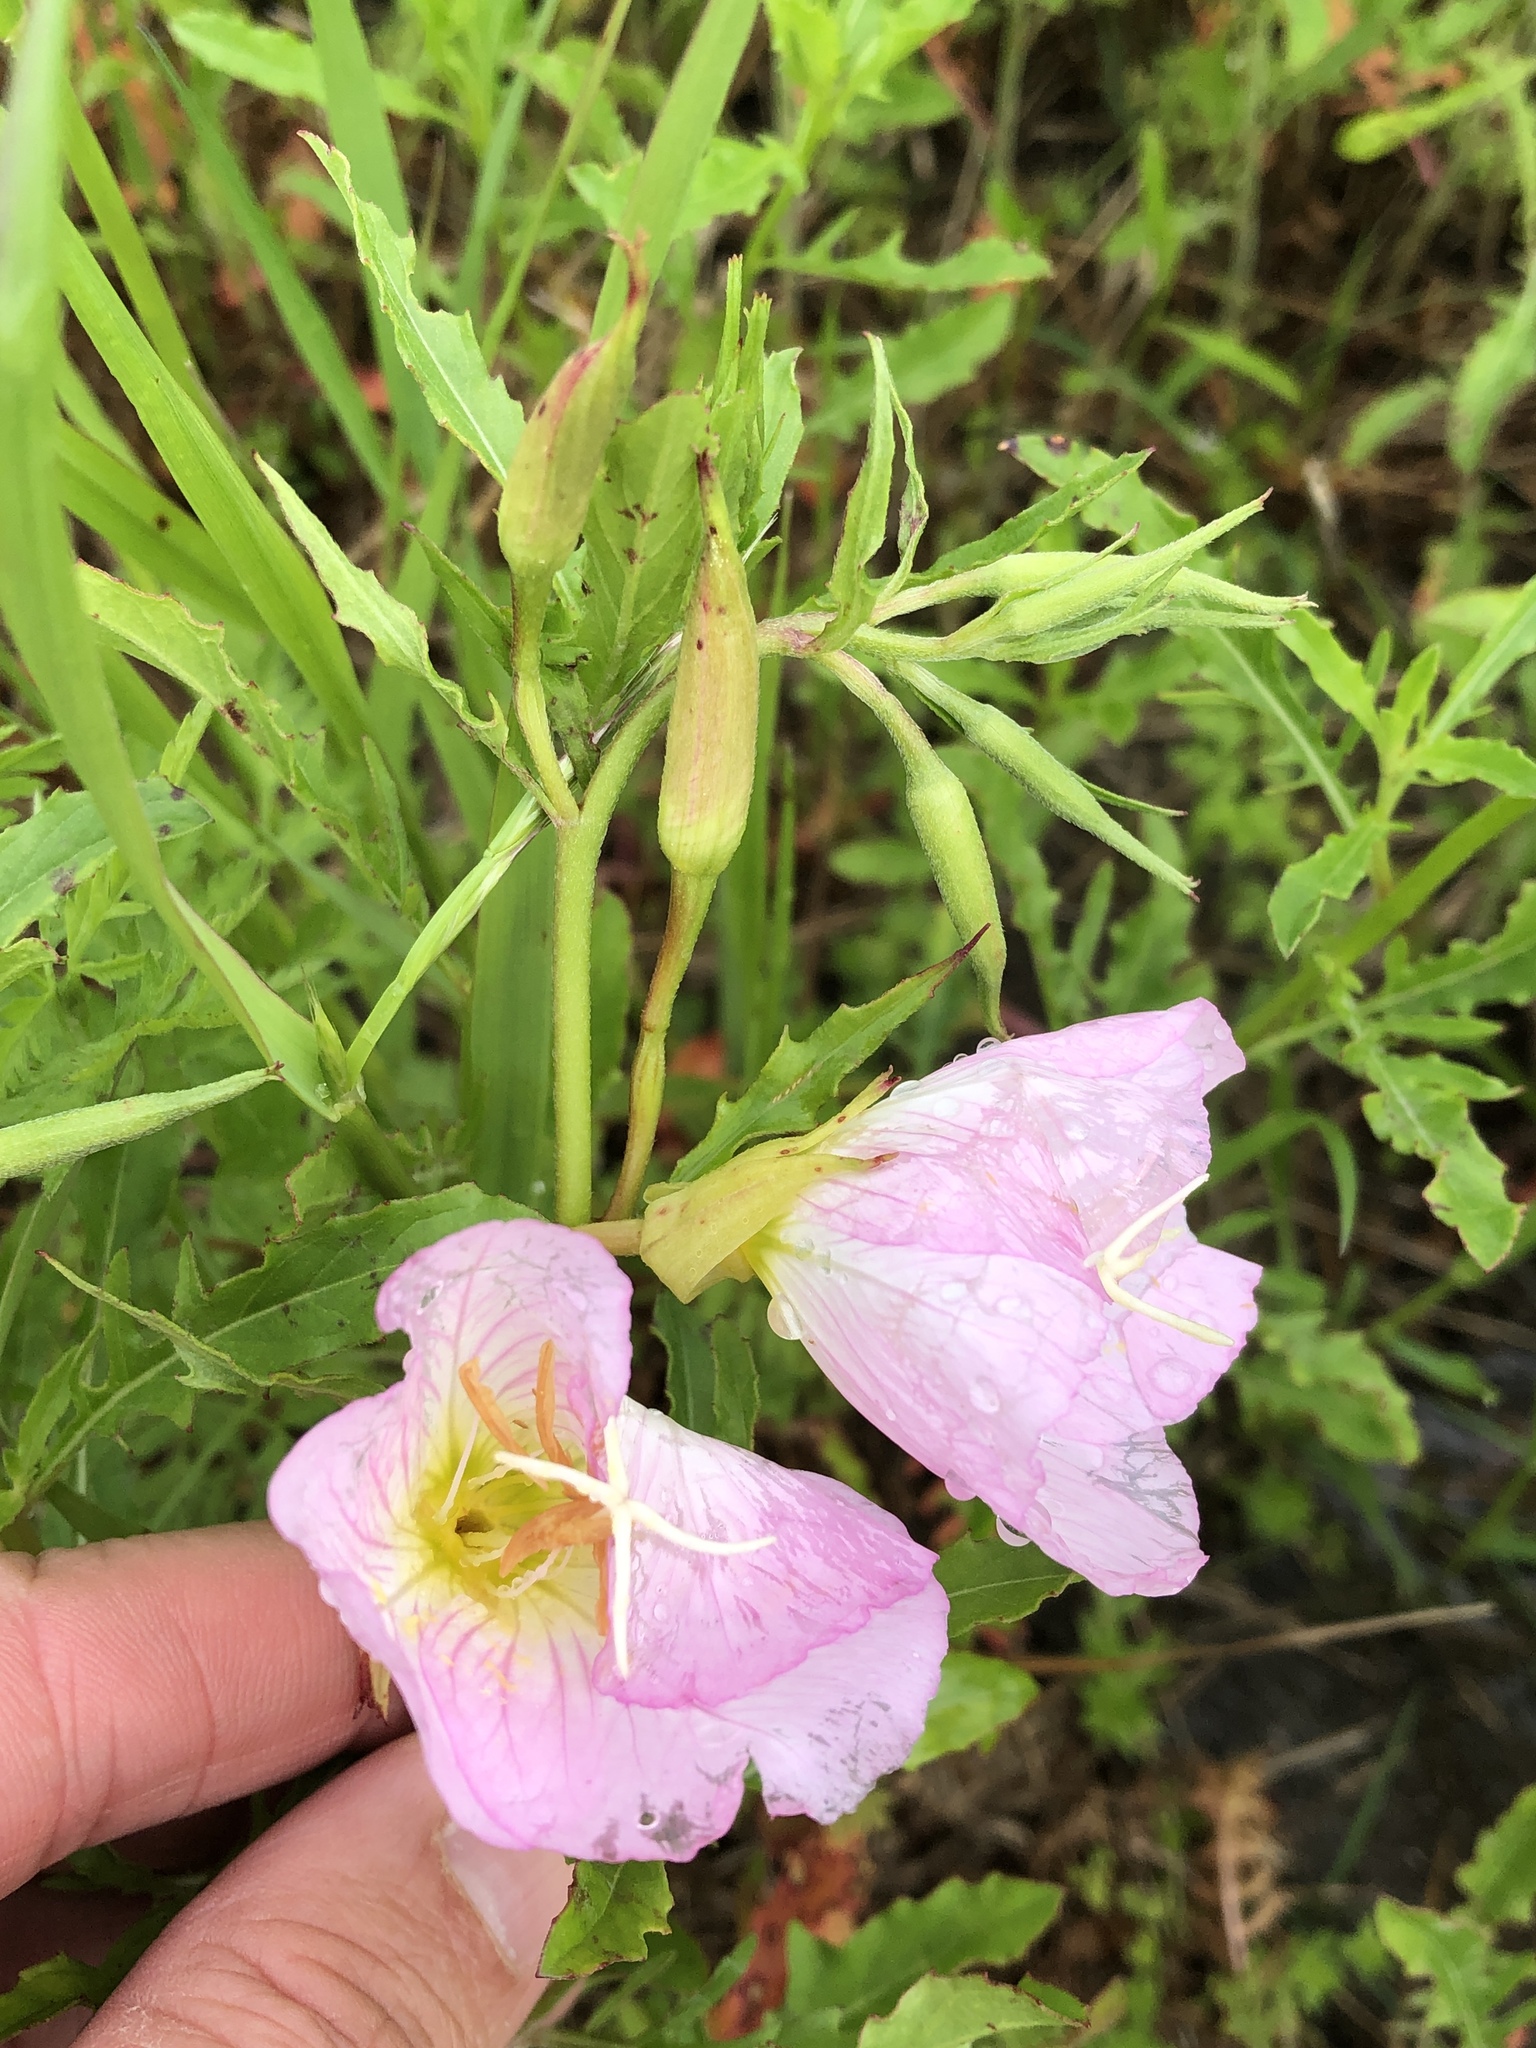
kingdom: Plantae
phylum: Tracheophyta
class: Magnoliopsida
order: Myrtales
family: Onagraceae
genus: Oenothera
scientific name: Oenothera speciosa
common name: White evening-primrose
